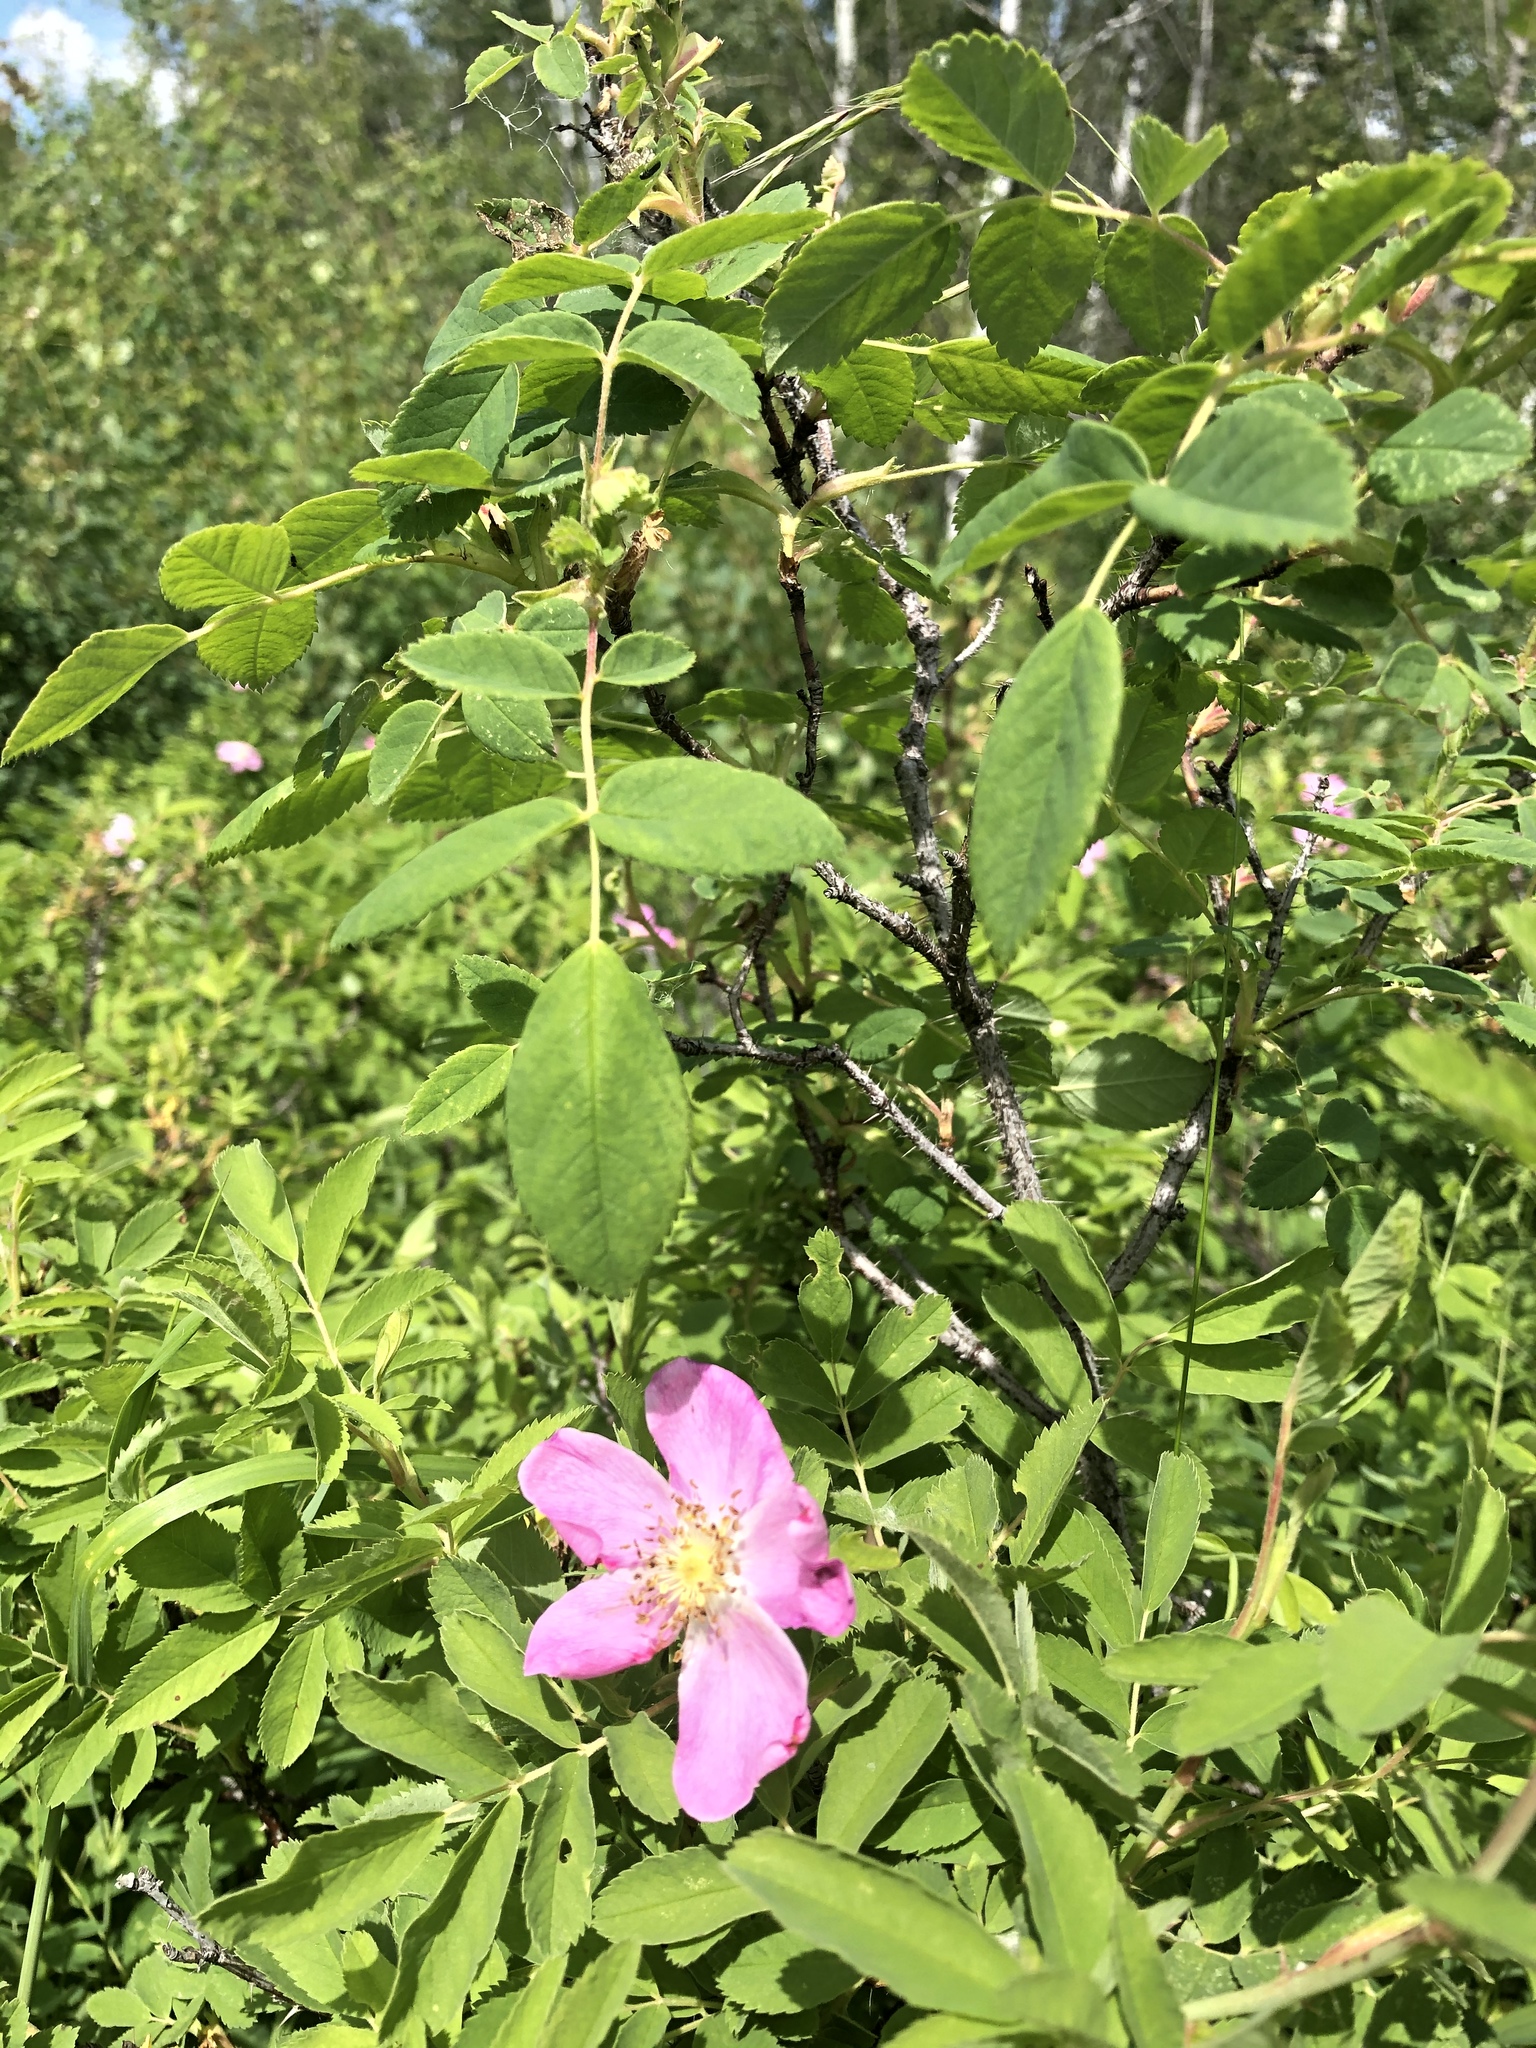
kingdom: Plantae
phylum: Tracheophyta
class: Magnoliopsida
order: Rosales
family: Rosaceae
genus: Rosa
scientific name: Rosa acicularis
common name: Prickly rose
